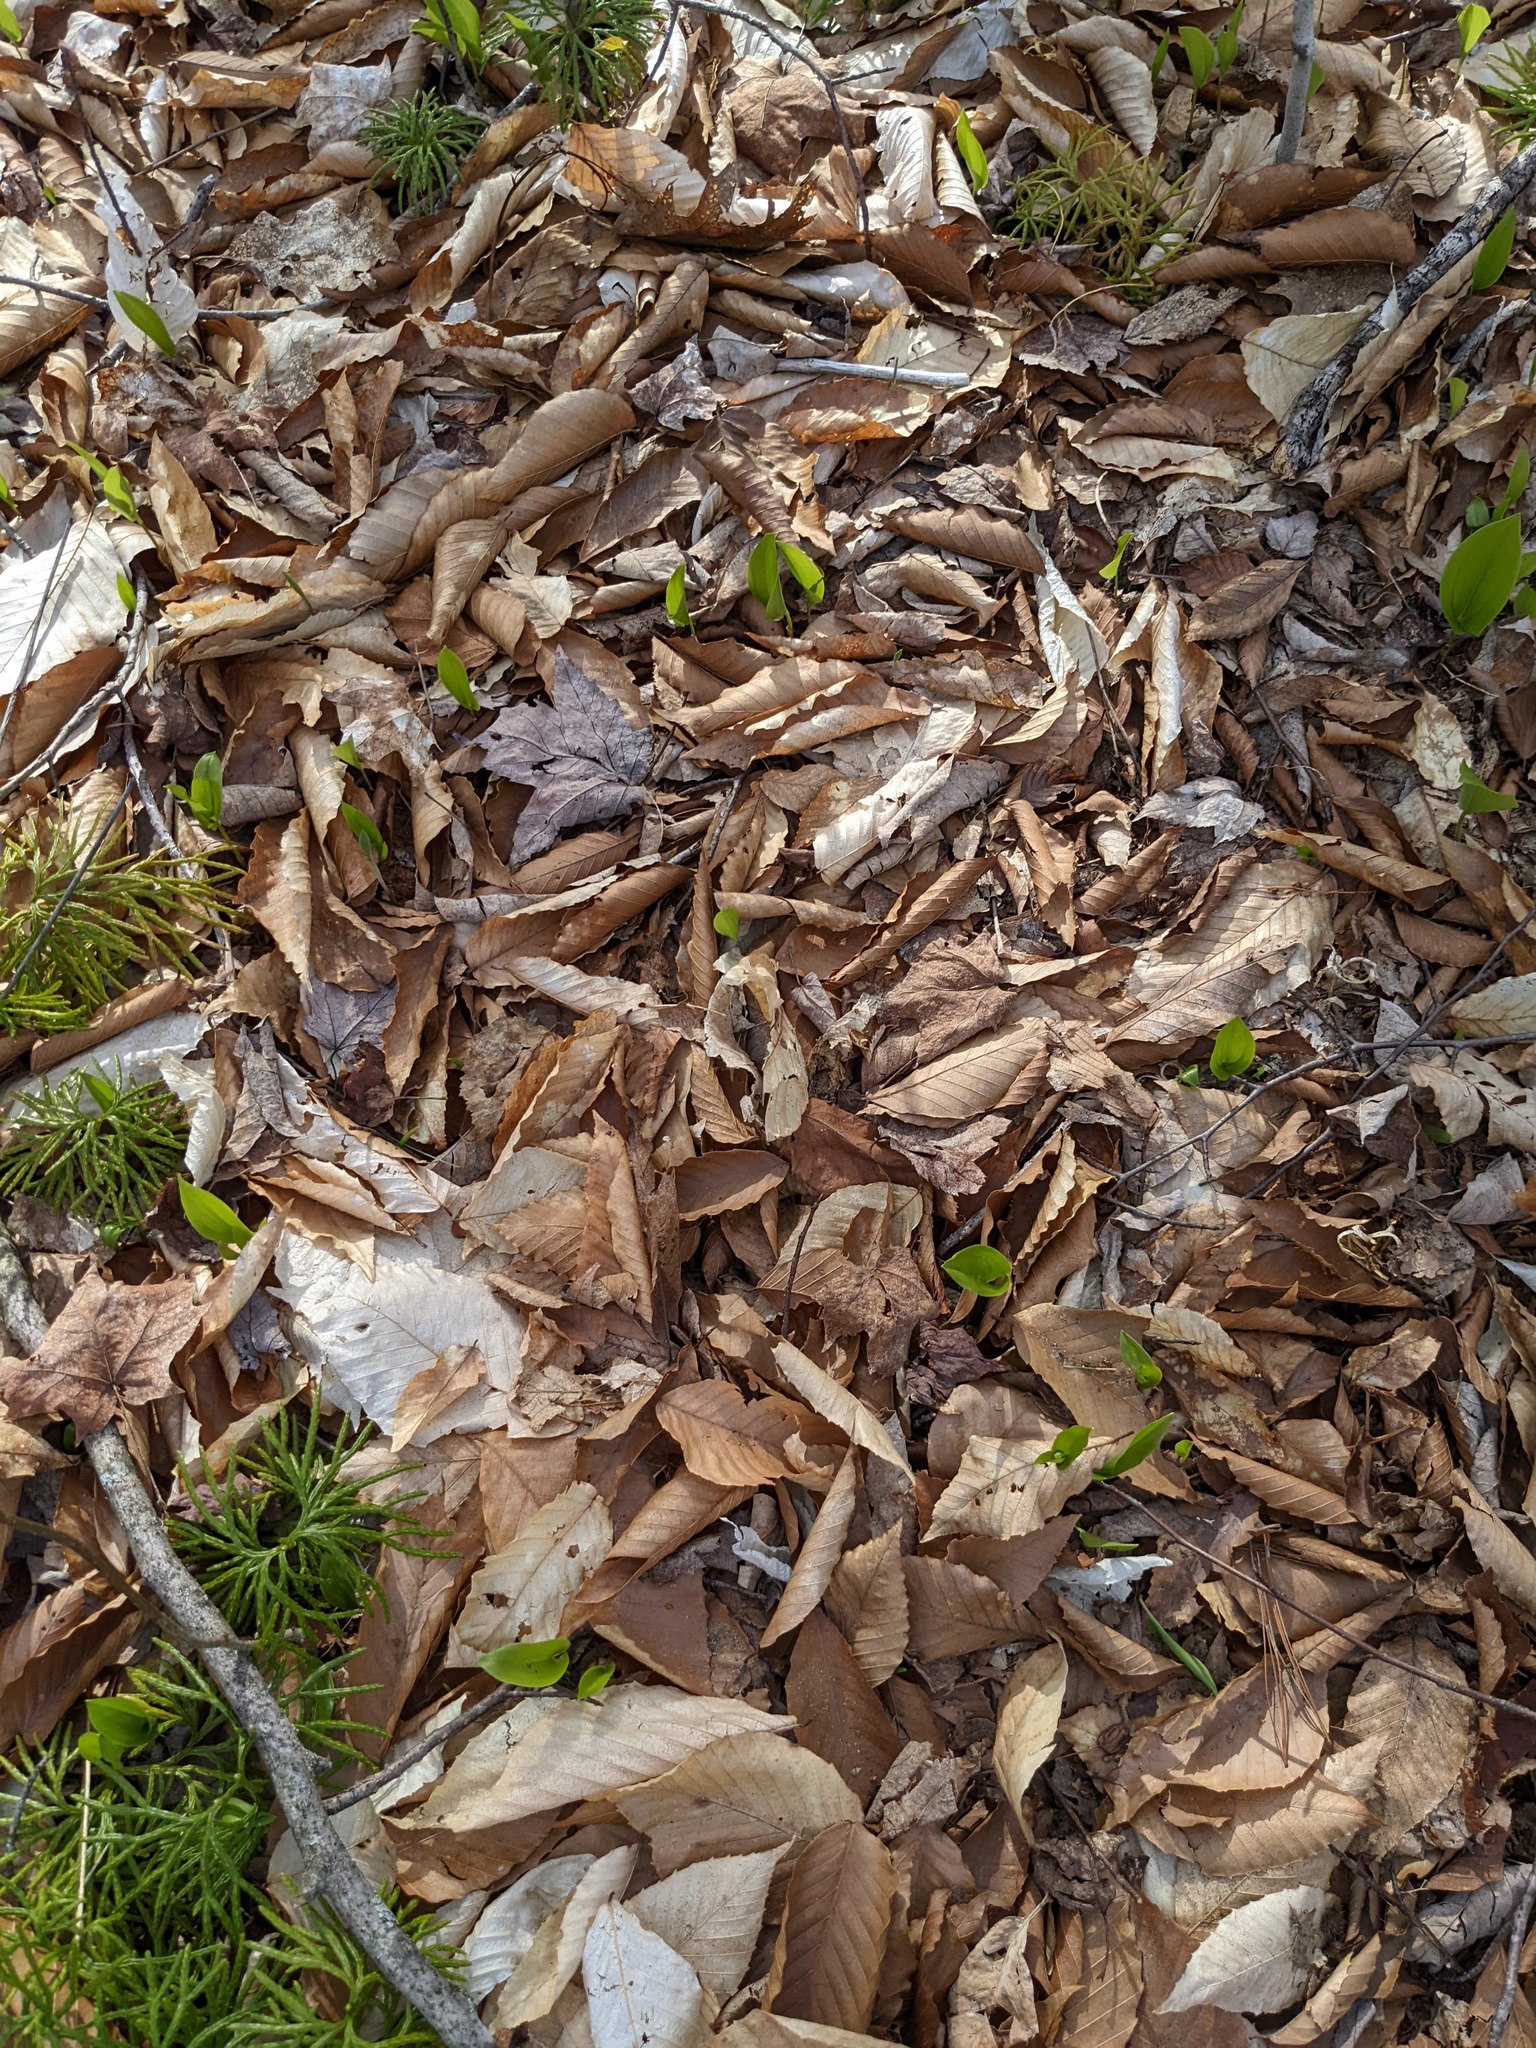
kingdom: Plantae
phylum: Tracheophyta
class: Magnoliopsida
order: Fagales
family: Fagaceae
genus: Fagus
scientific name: Fagus grandifolia
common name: American beech
